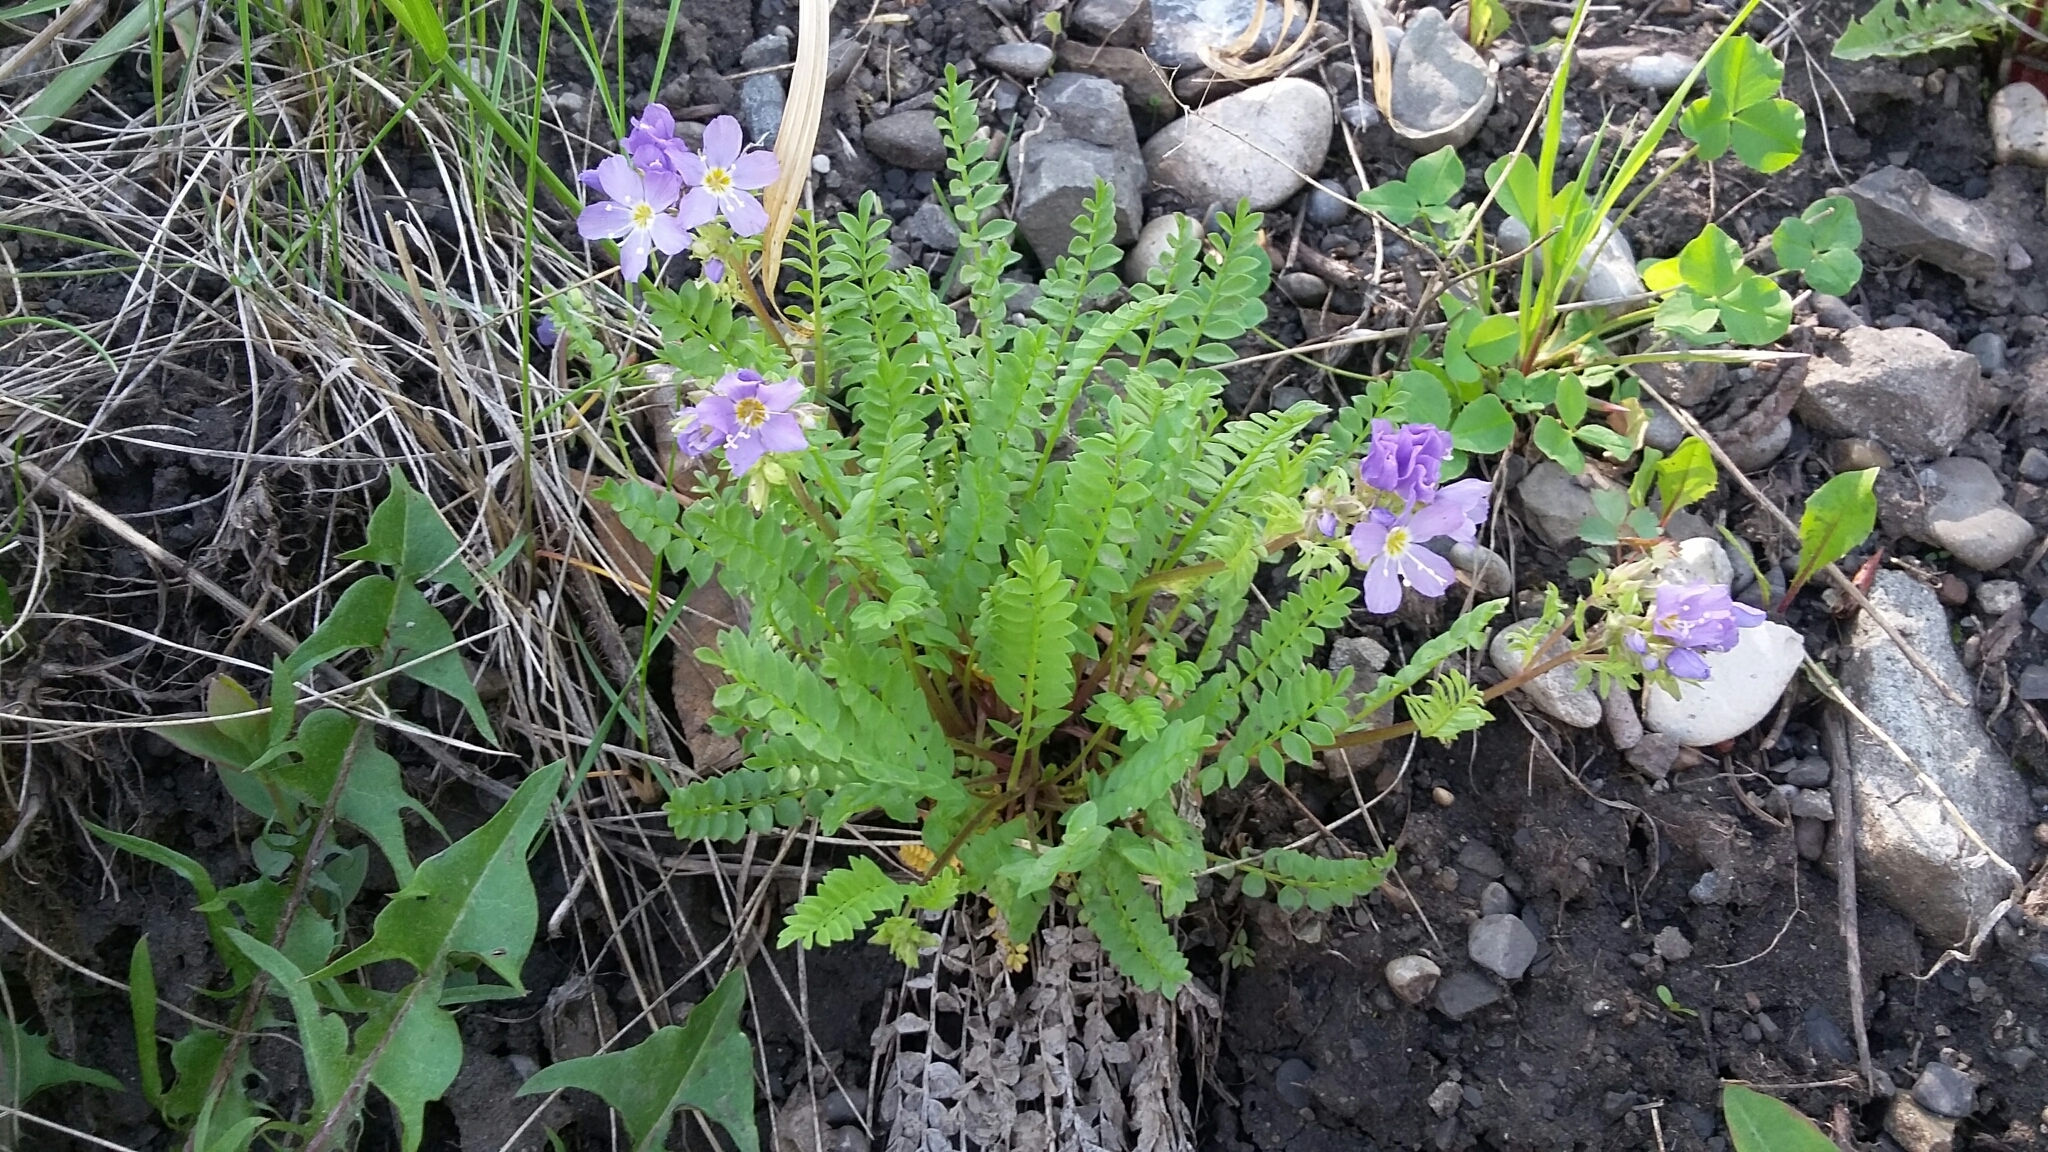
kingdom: Plantae
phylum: Tracheophyta
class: Magnoliopsida
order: Ericales
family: Polemoniaceae
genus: Polemonium
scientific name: Polemonium pulcherrimum
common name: Short jacob's-ladder
